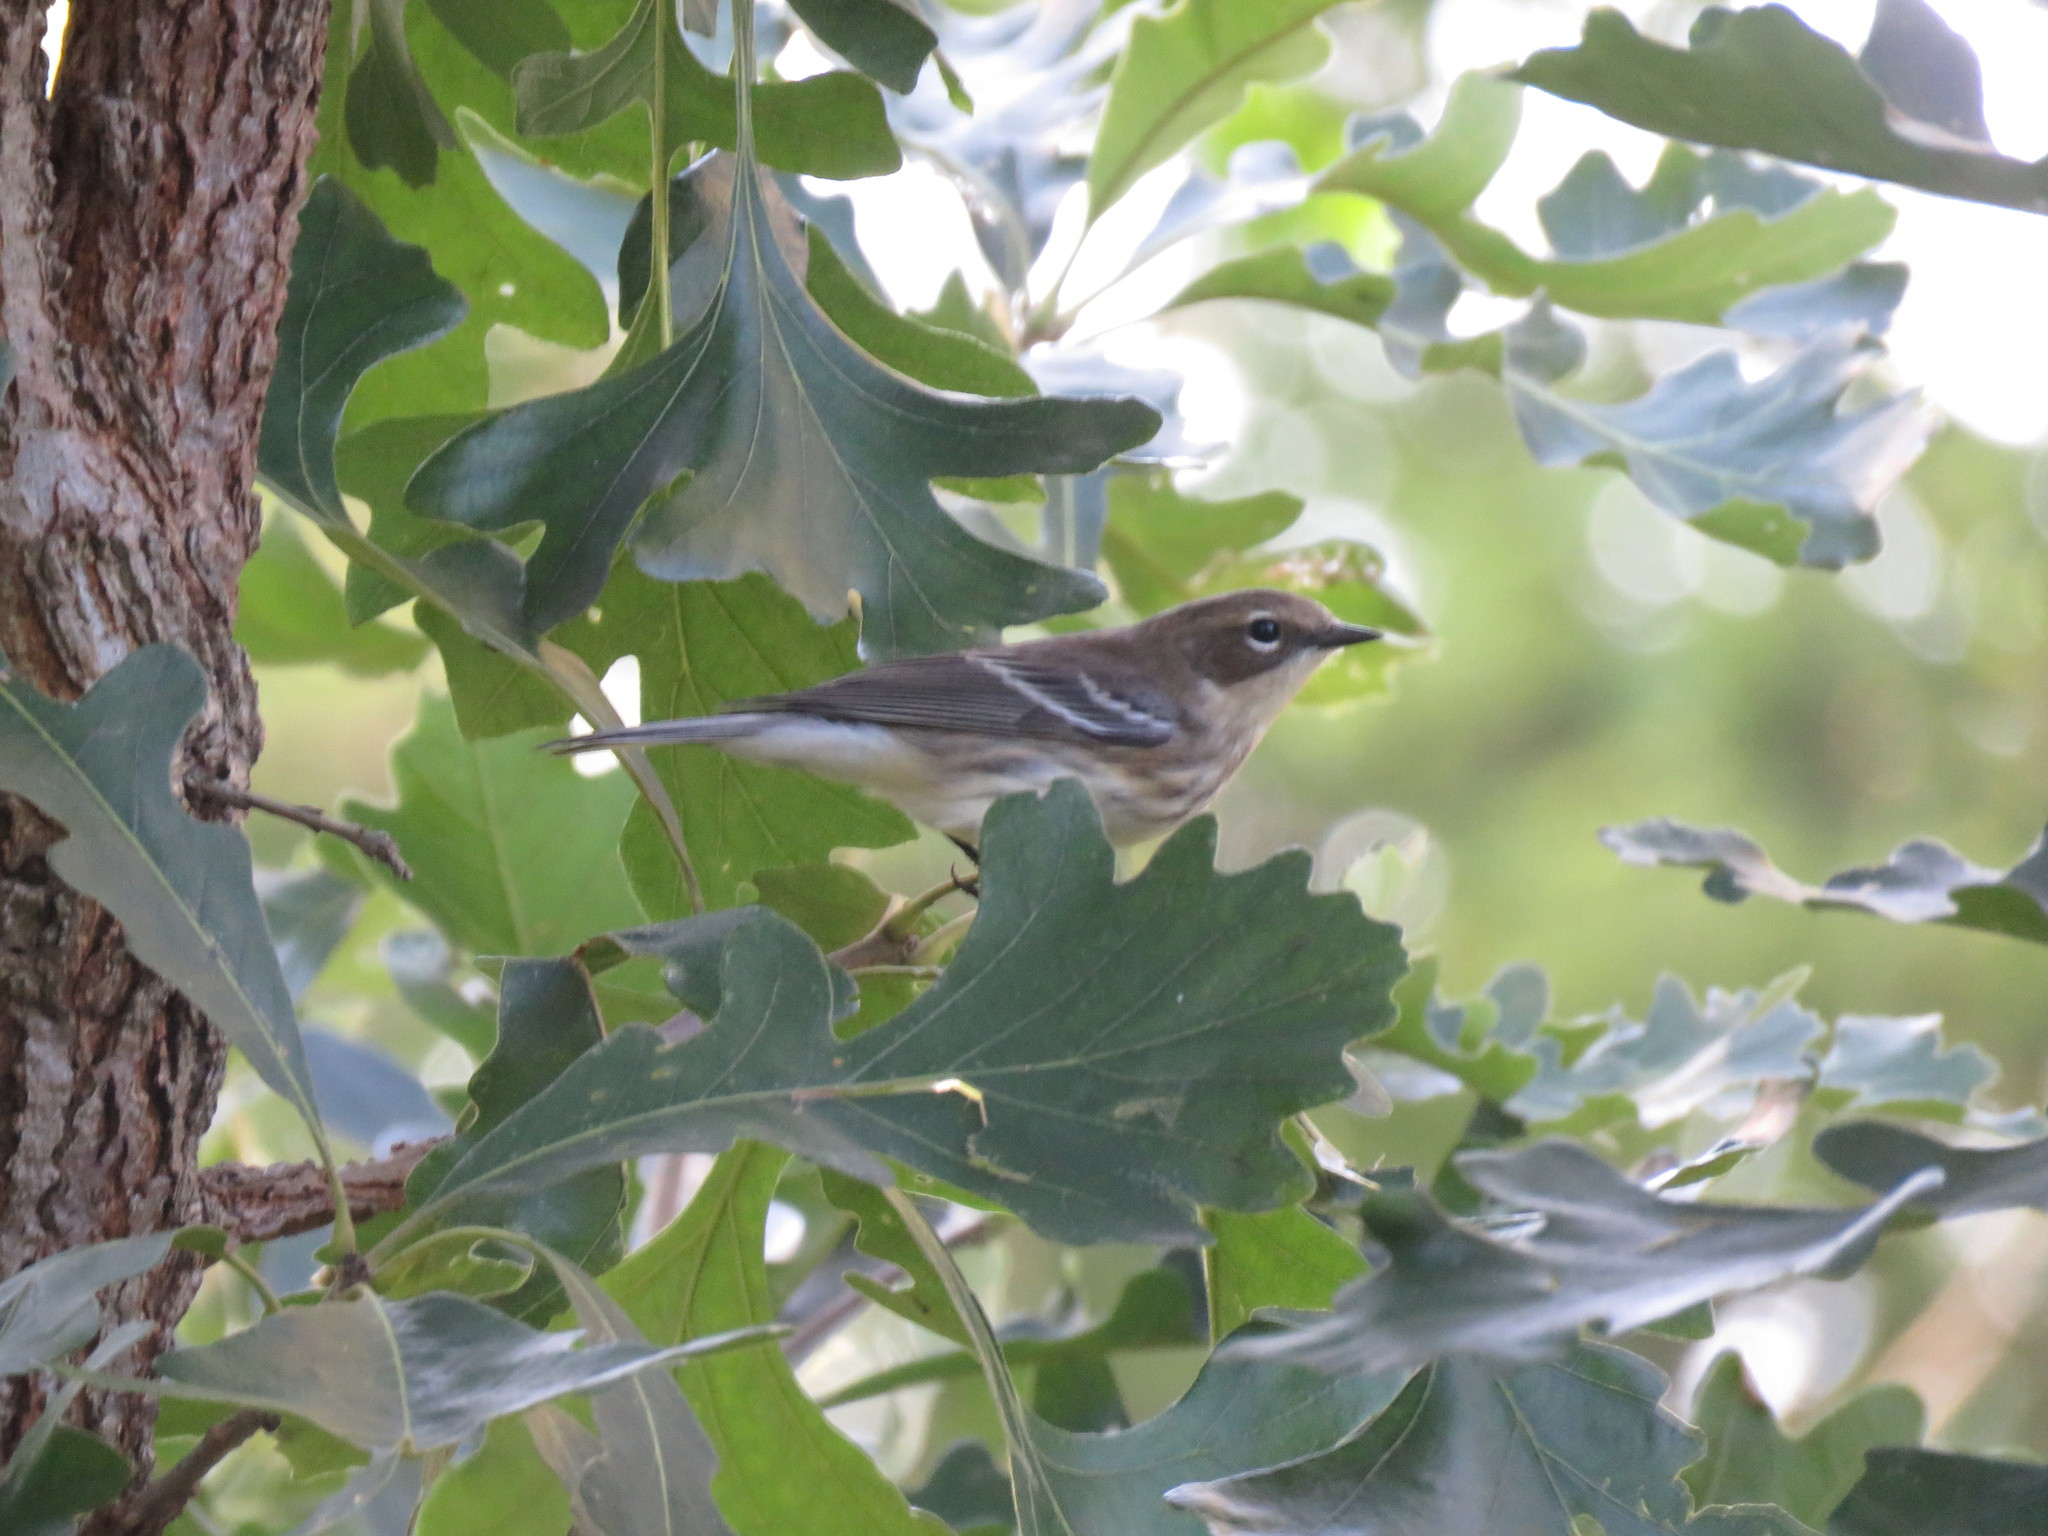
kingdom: Animalia
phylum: Chordata
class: Aves
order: Passeriformes
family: Parulidae
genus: Setophaga
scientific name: Setophaga coronata
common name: Myrtle warbler
